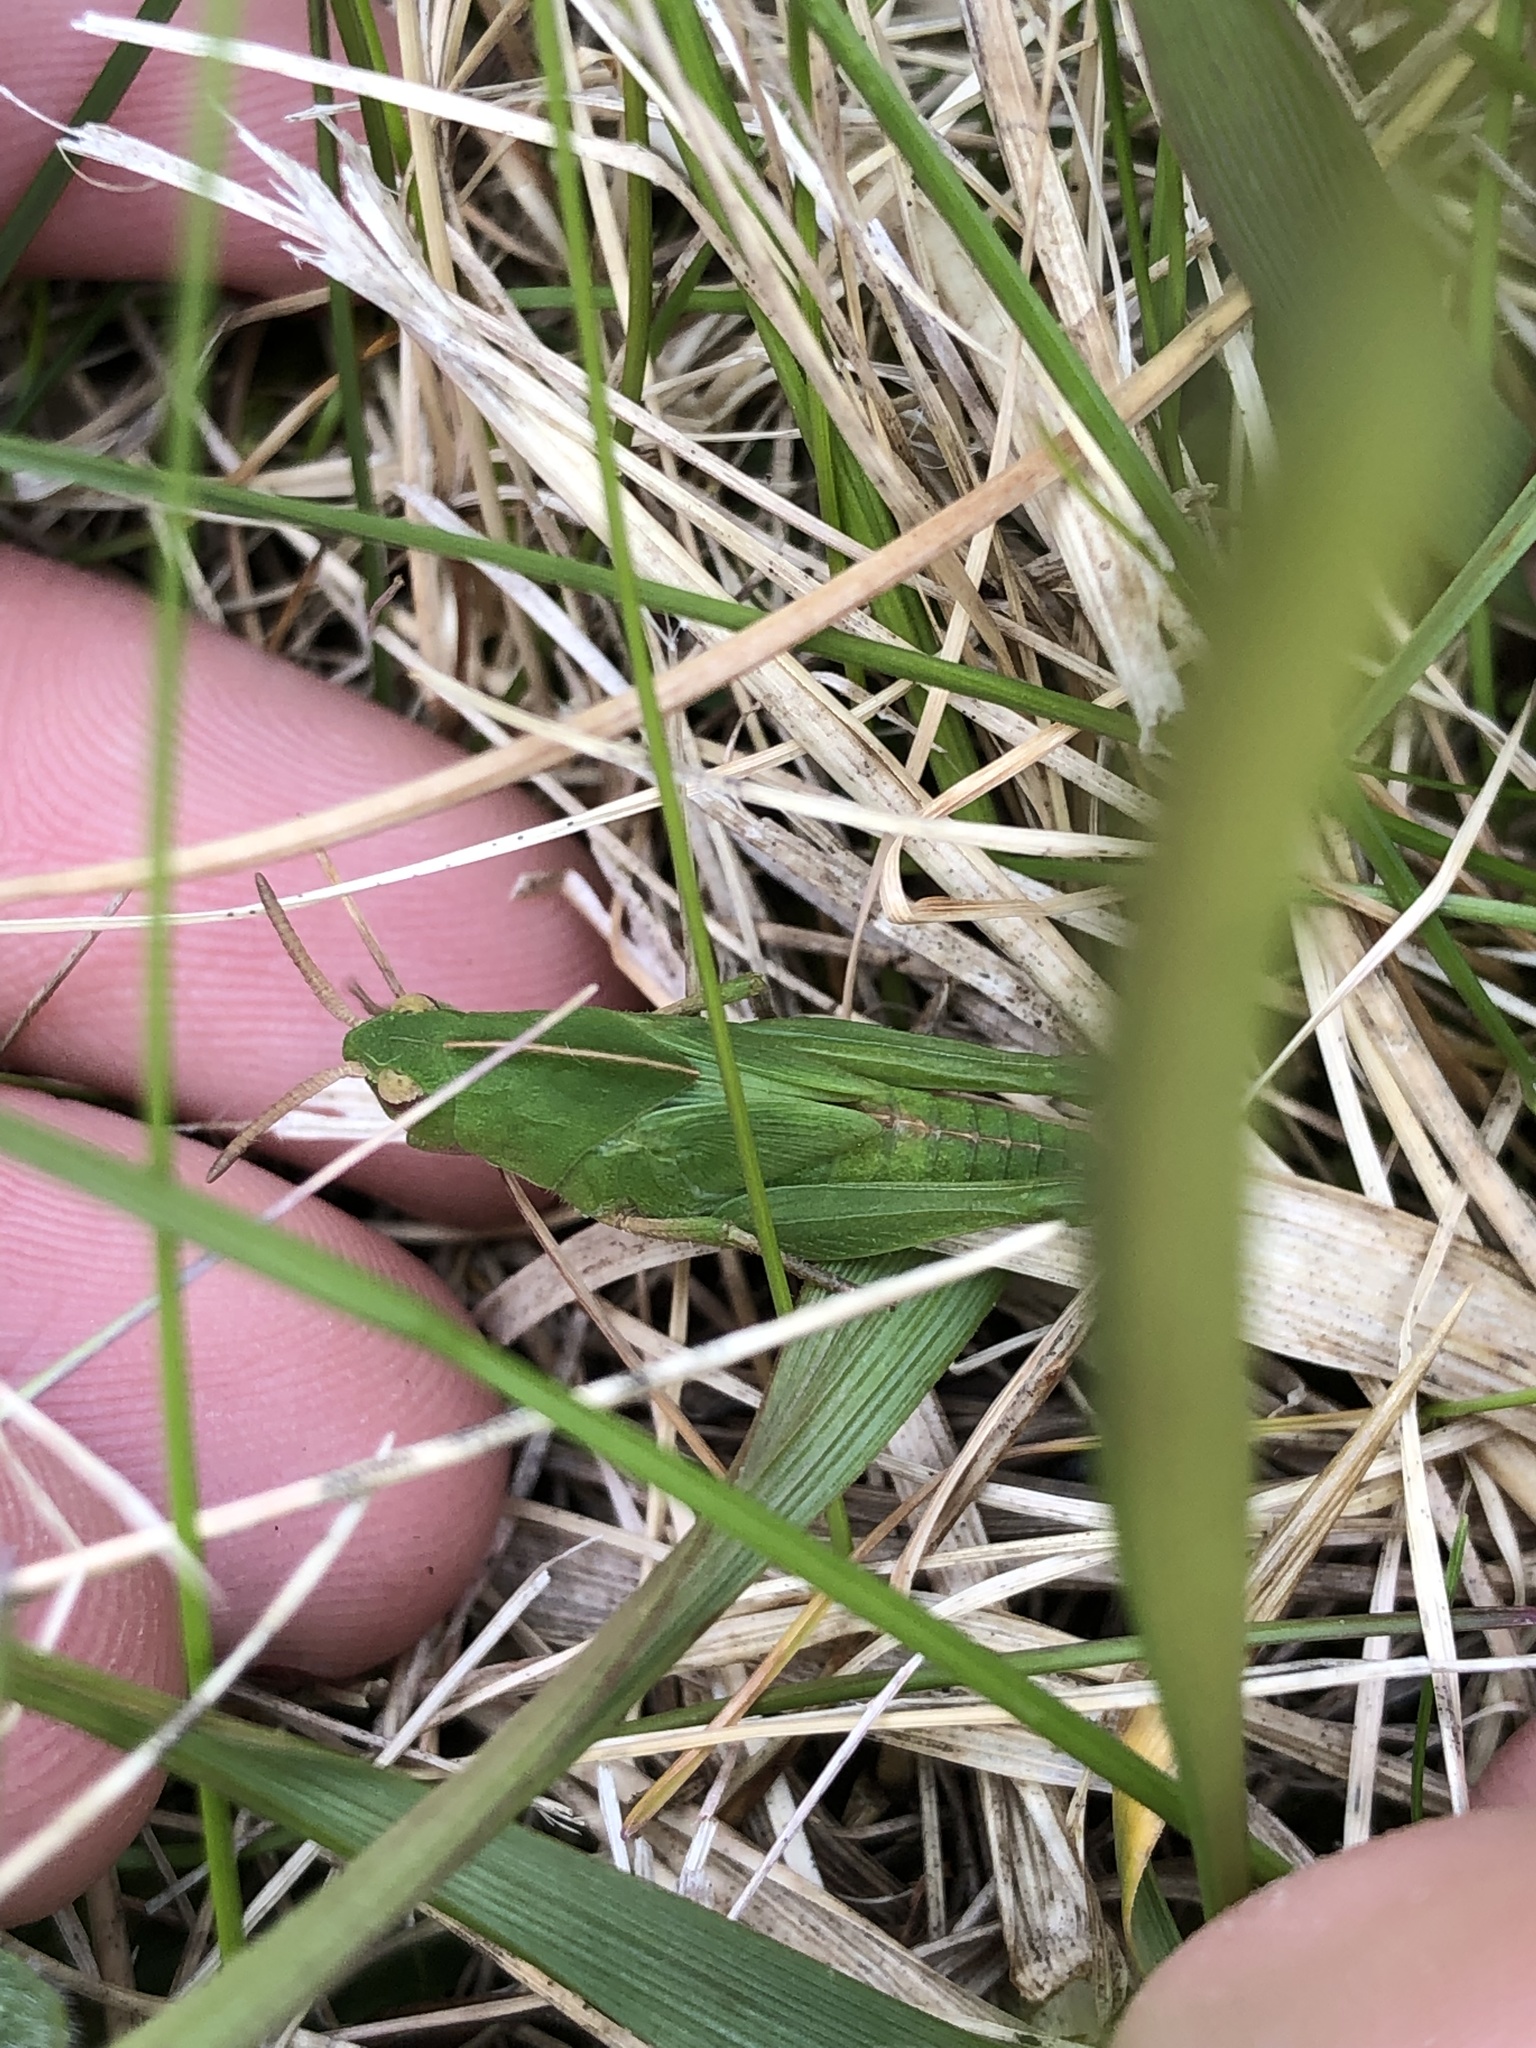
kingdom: Animalia
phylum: Arthropoda
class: Insecta
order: Orthoptera
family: Acrididae
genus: Chortophaga
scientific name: Chortophaga viridifasciata
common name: Green-striped grasshopper
